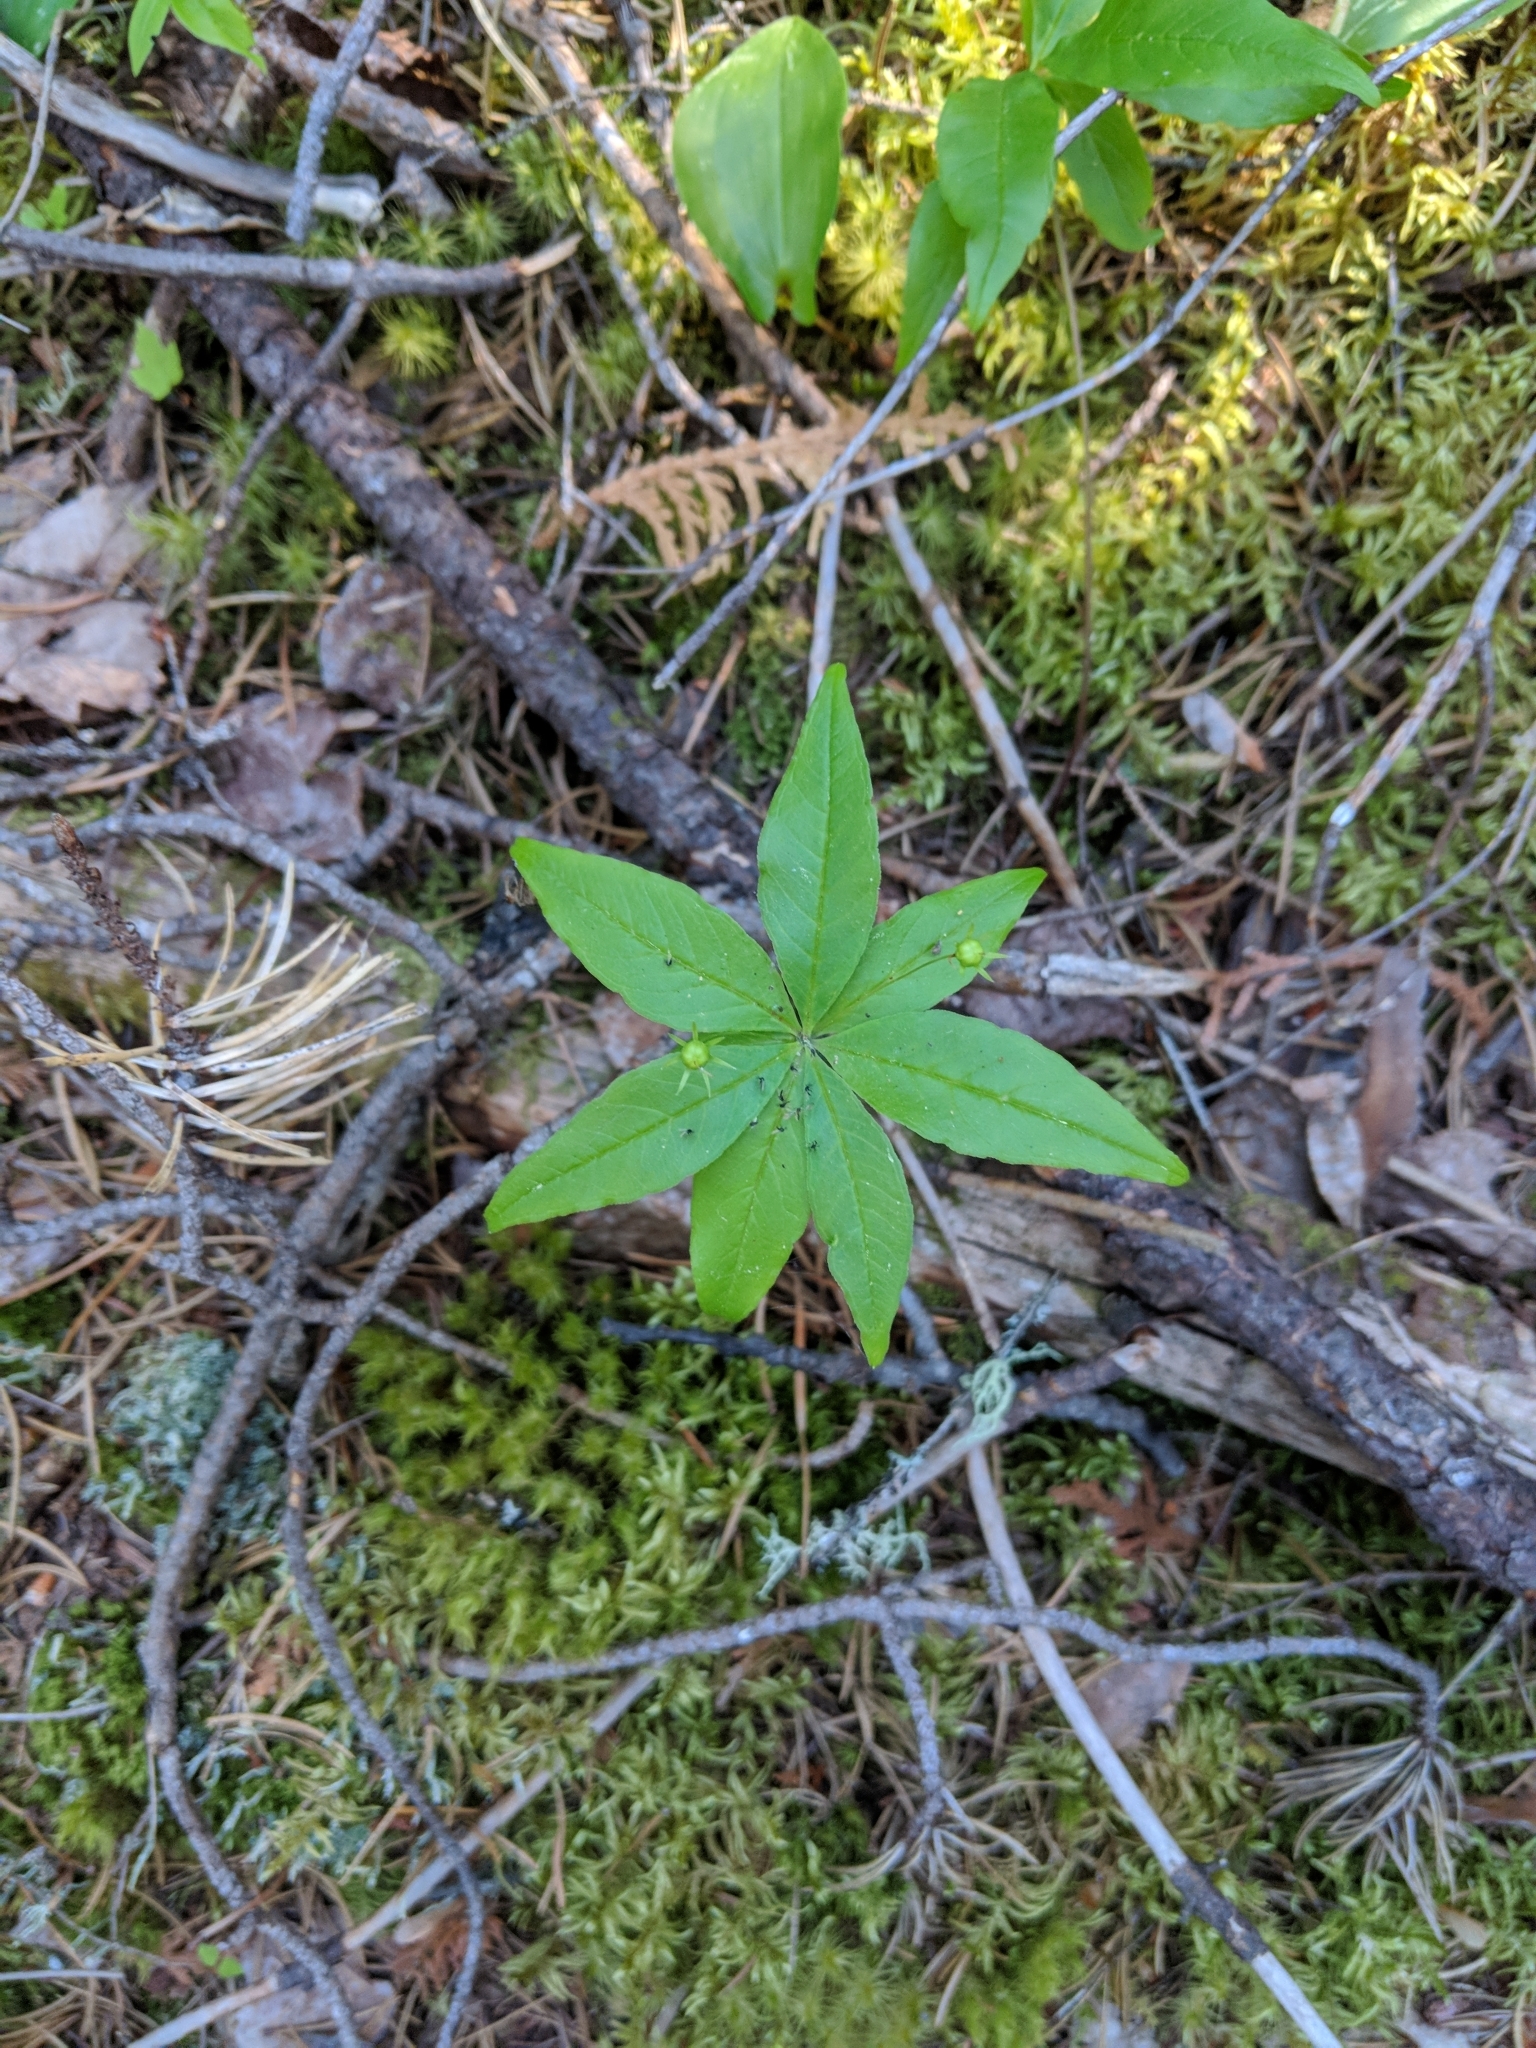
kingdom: Plantae
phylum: Tracheophyta
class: Magnoliopsida
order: Ericales
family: Primulaceae
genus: Lysimachia
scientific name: Lysimachia borealis
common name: American starflower
